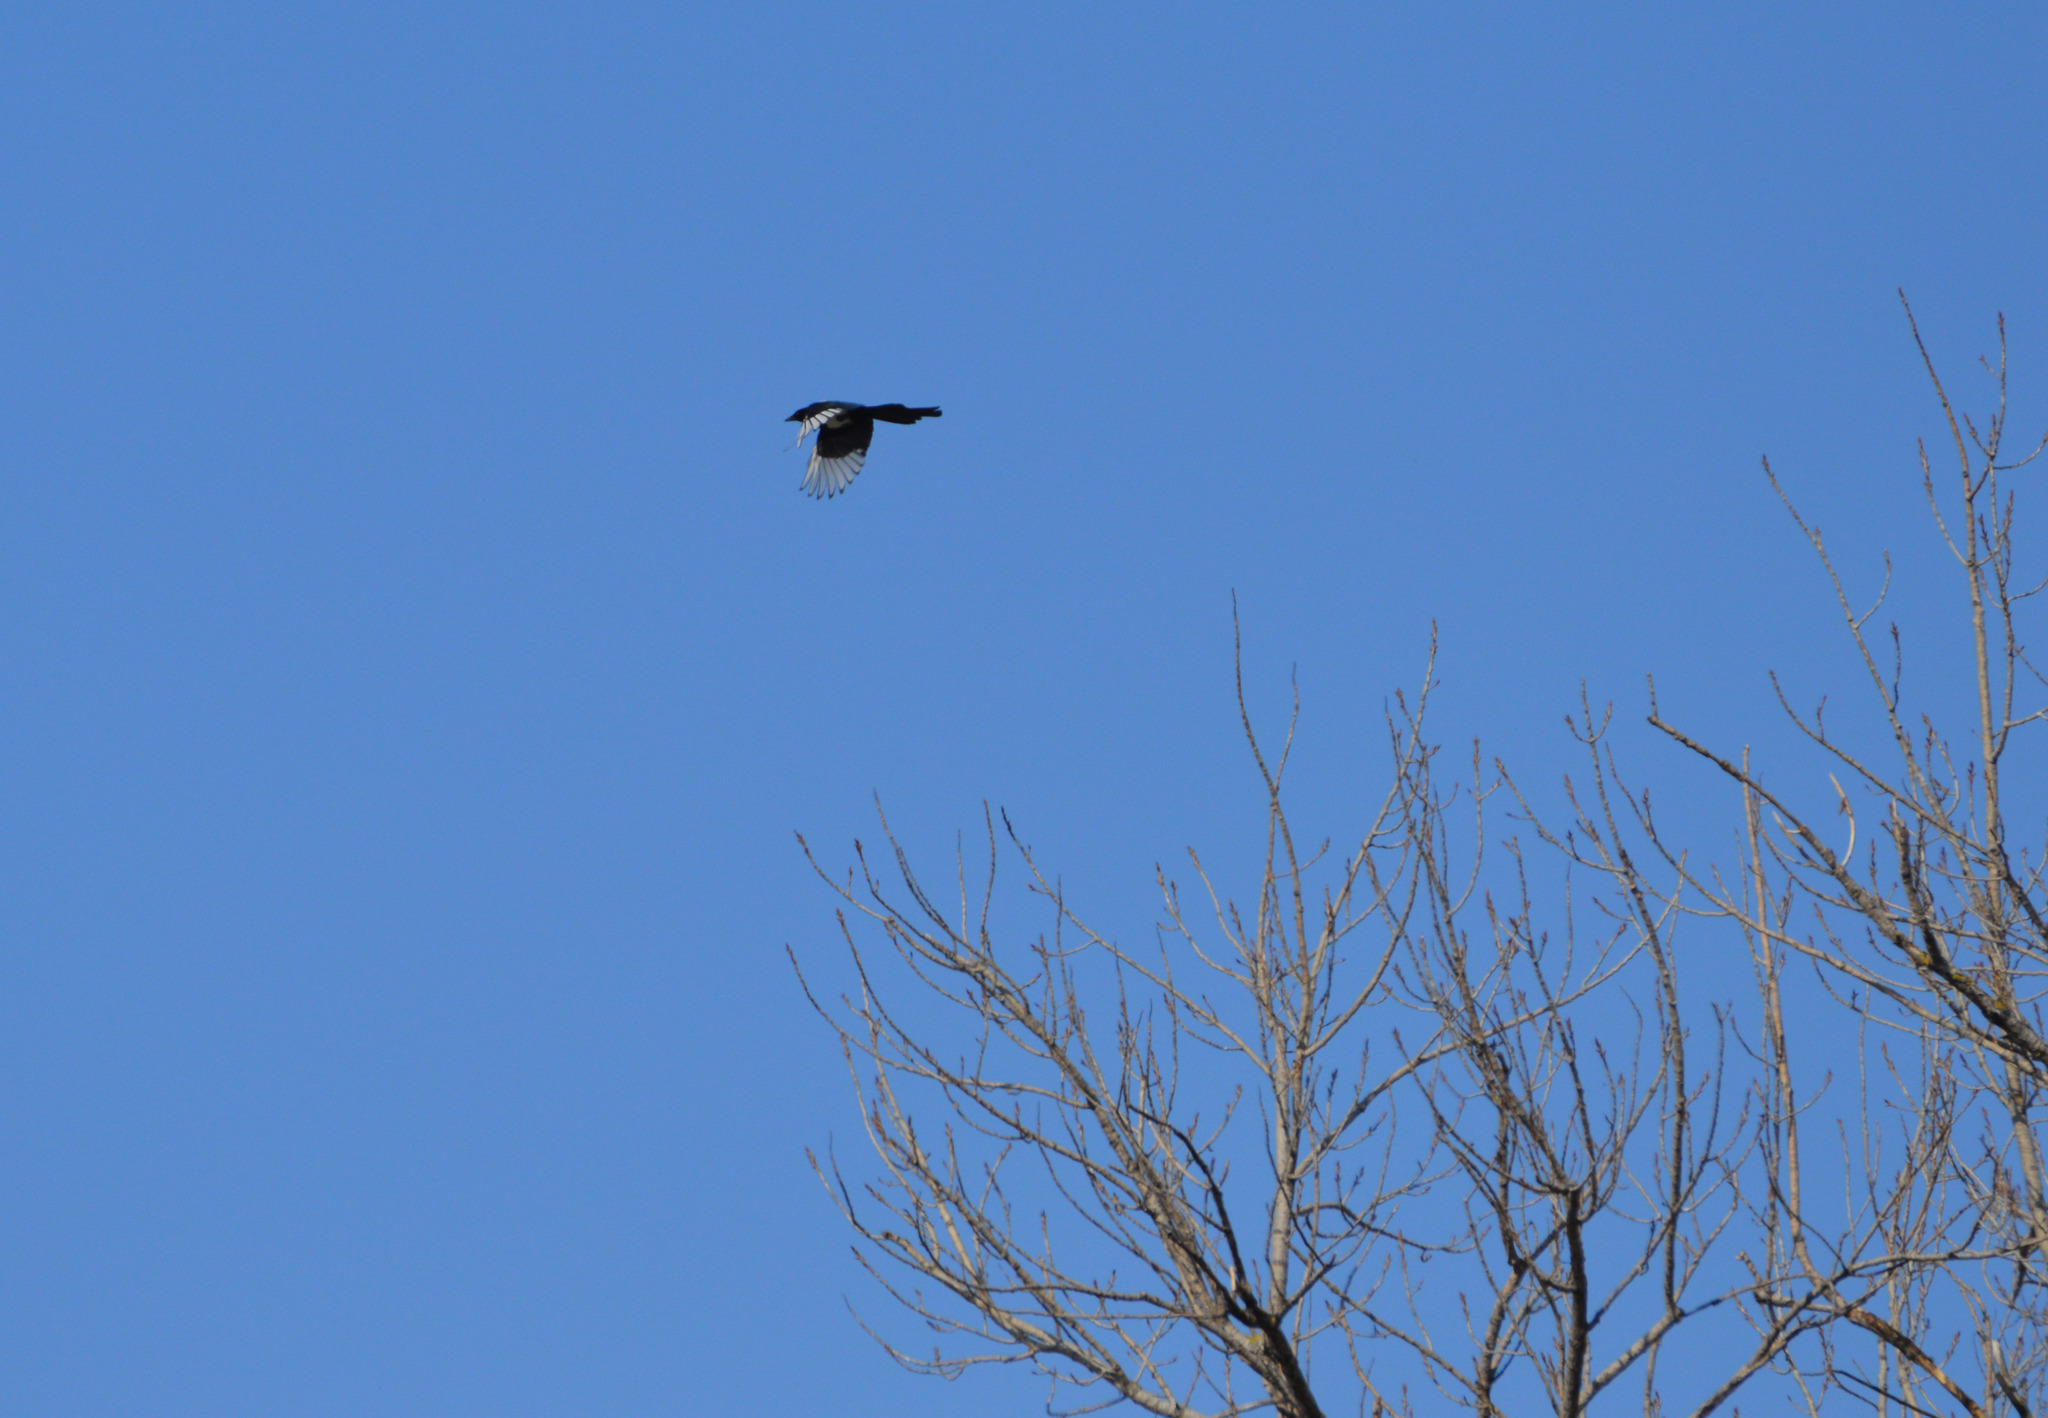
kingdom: Animalia
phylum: Chordata
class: Aves
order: Passeriformes
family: Corvidae
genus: Pica
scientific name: Pica pica
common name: Eurasian magpie
